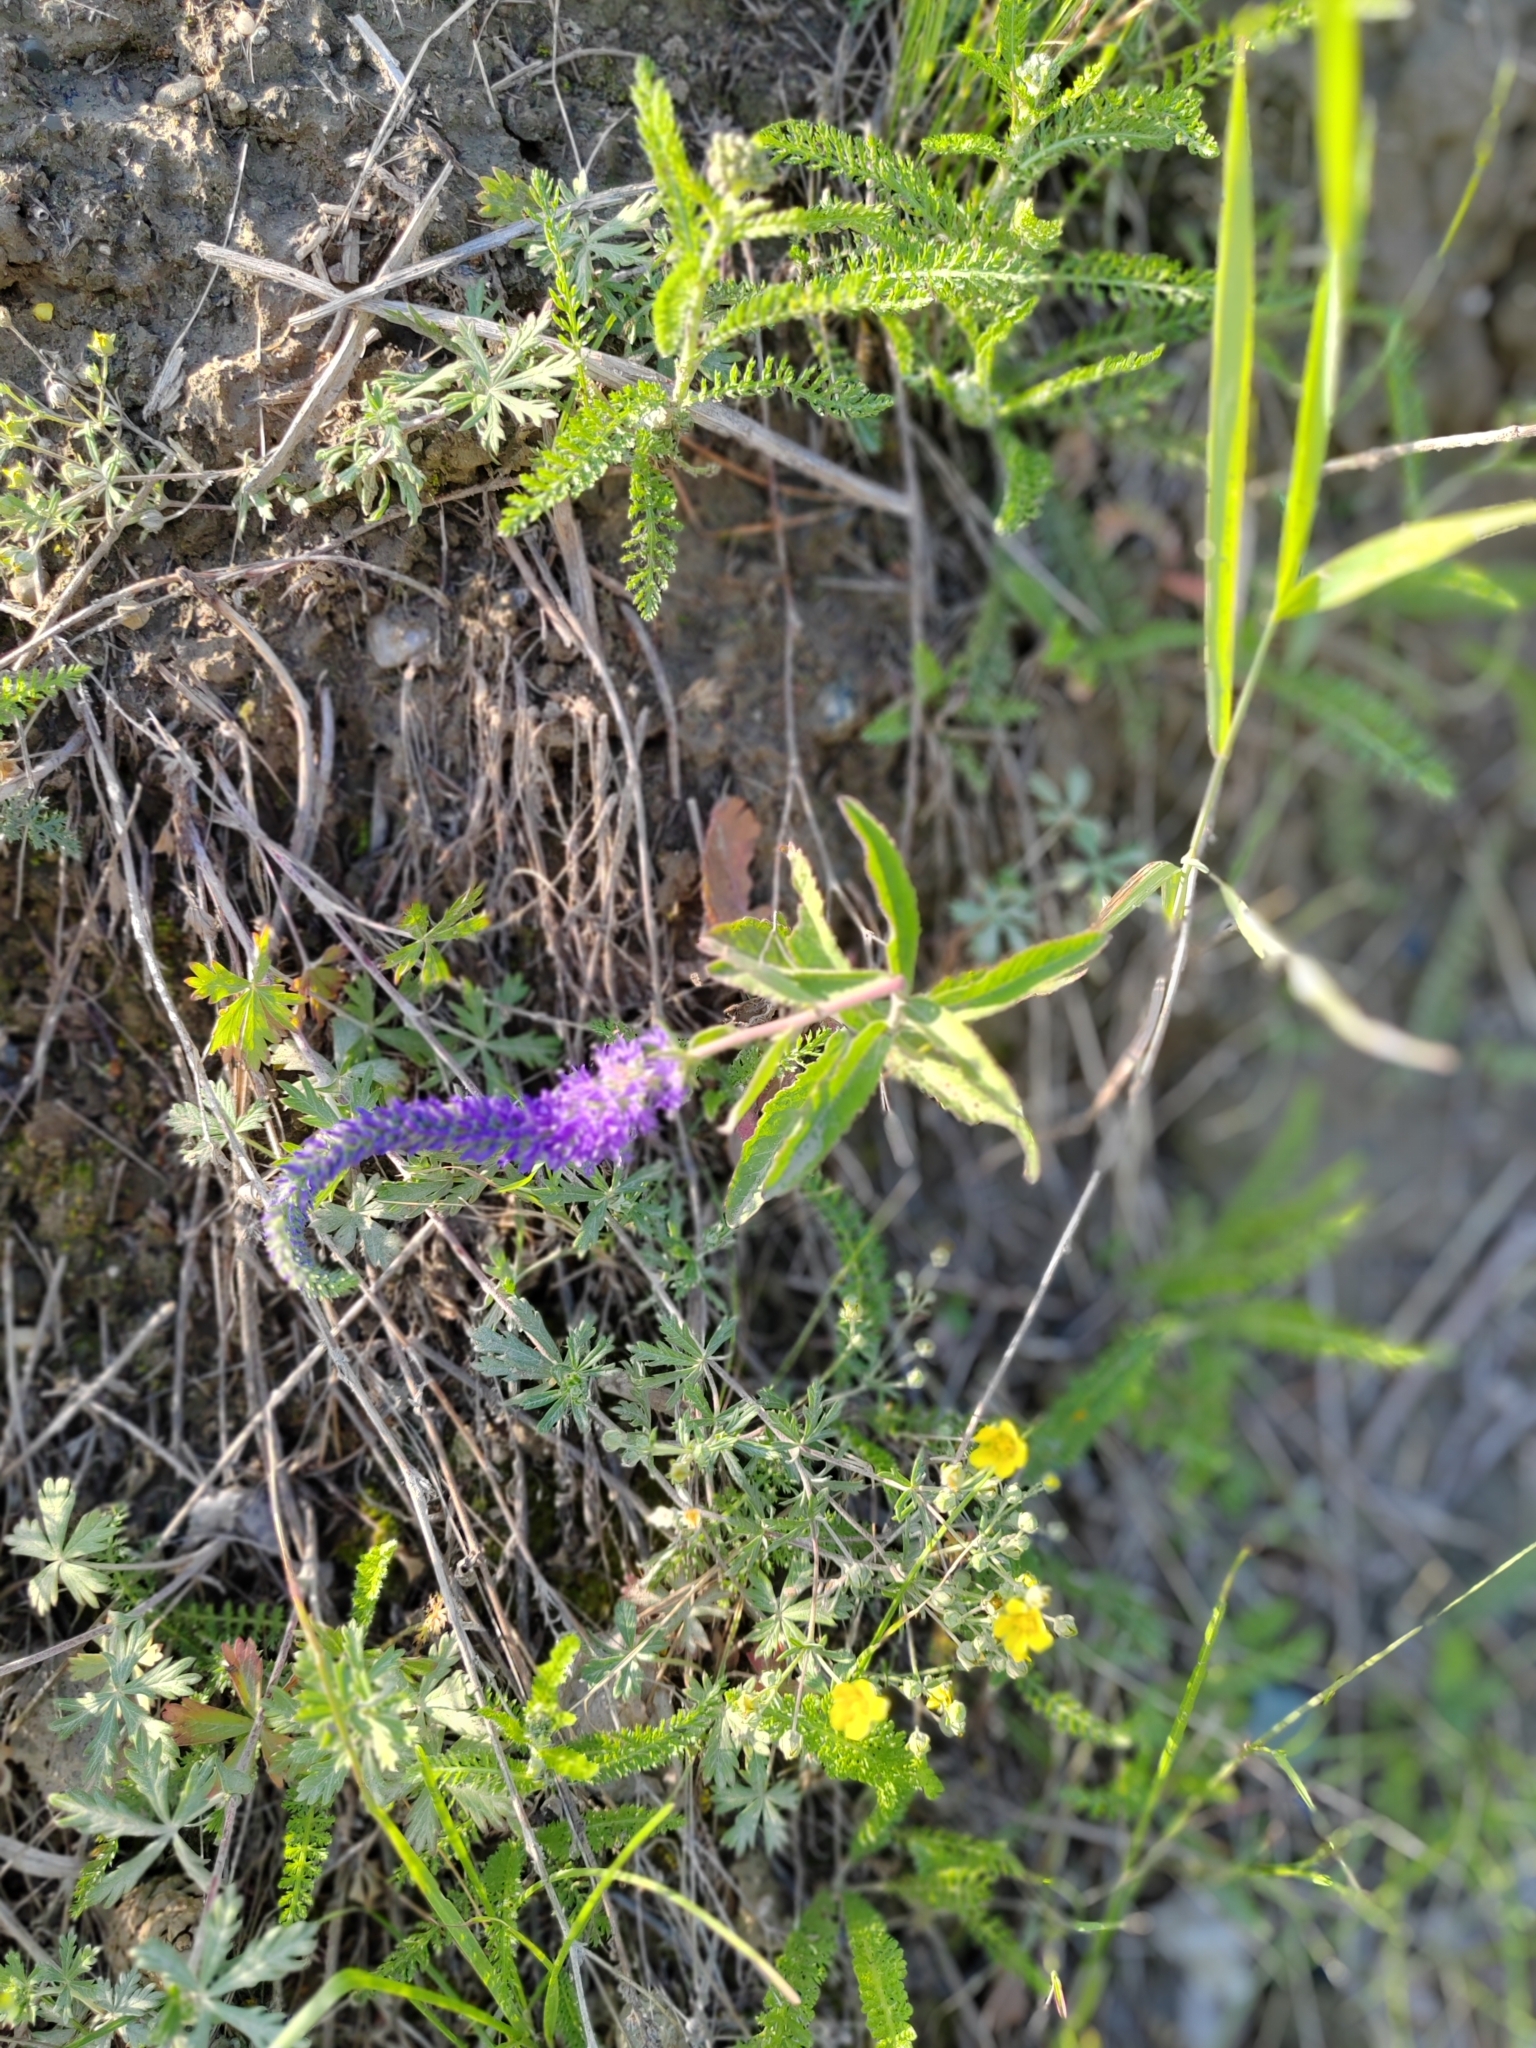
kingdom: Plantae
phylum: Tracheophyta
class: Magnoliopsida
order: Lamiales
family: Plantaginaceae
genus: Veronica
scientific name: Veronica spicata
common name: Spiked speedwell
